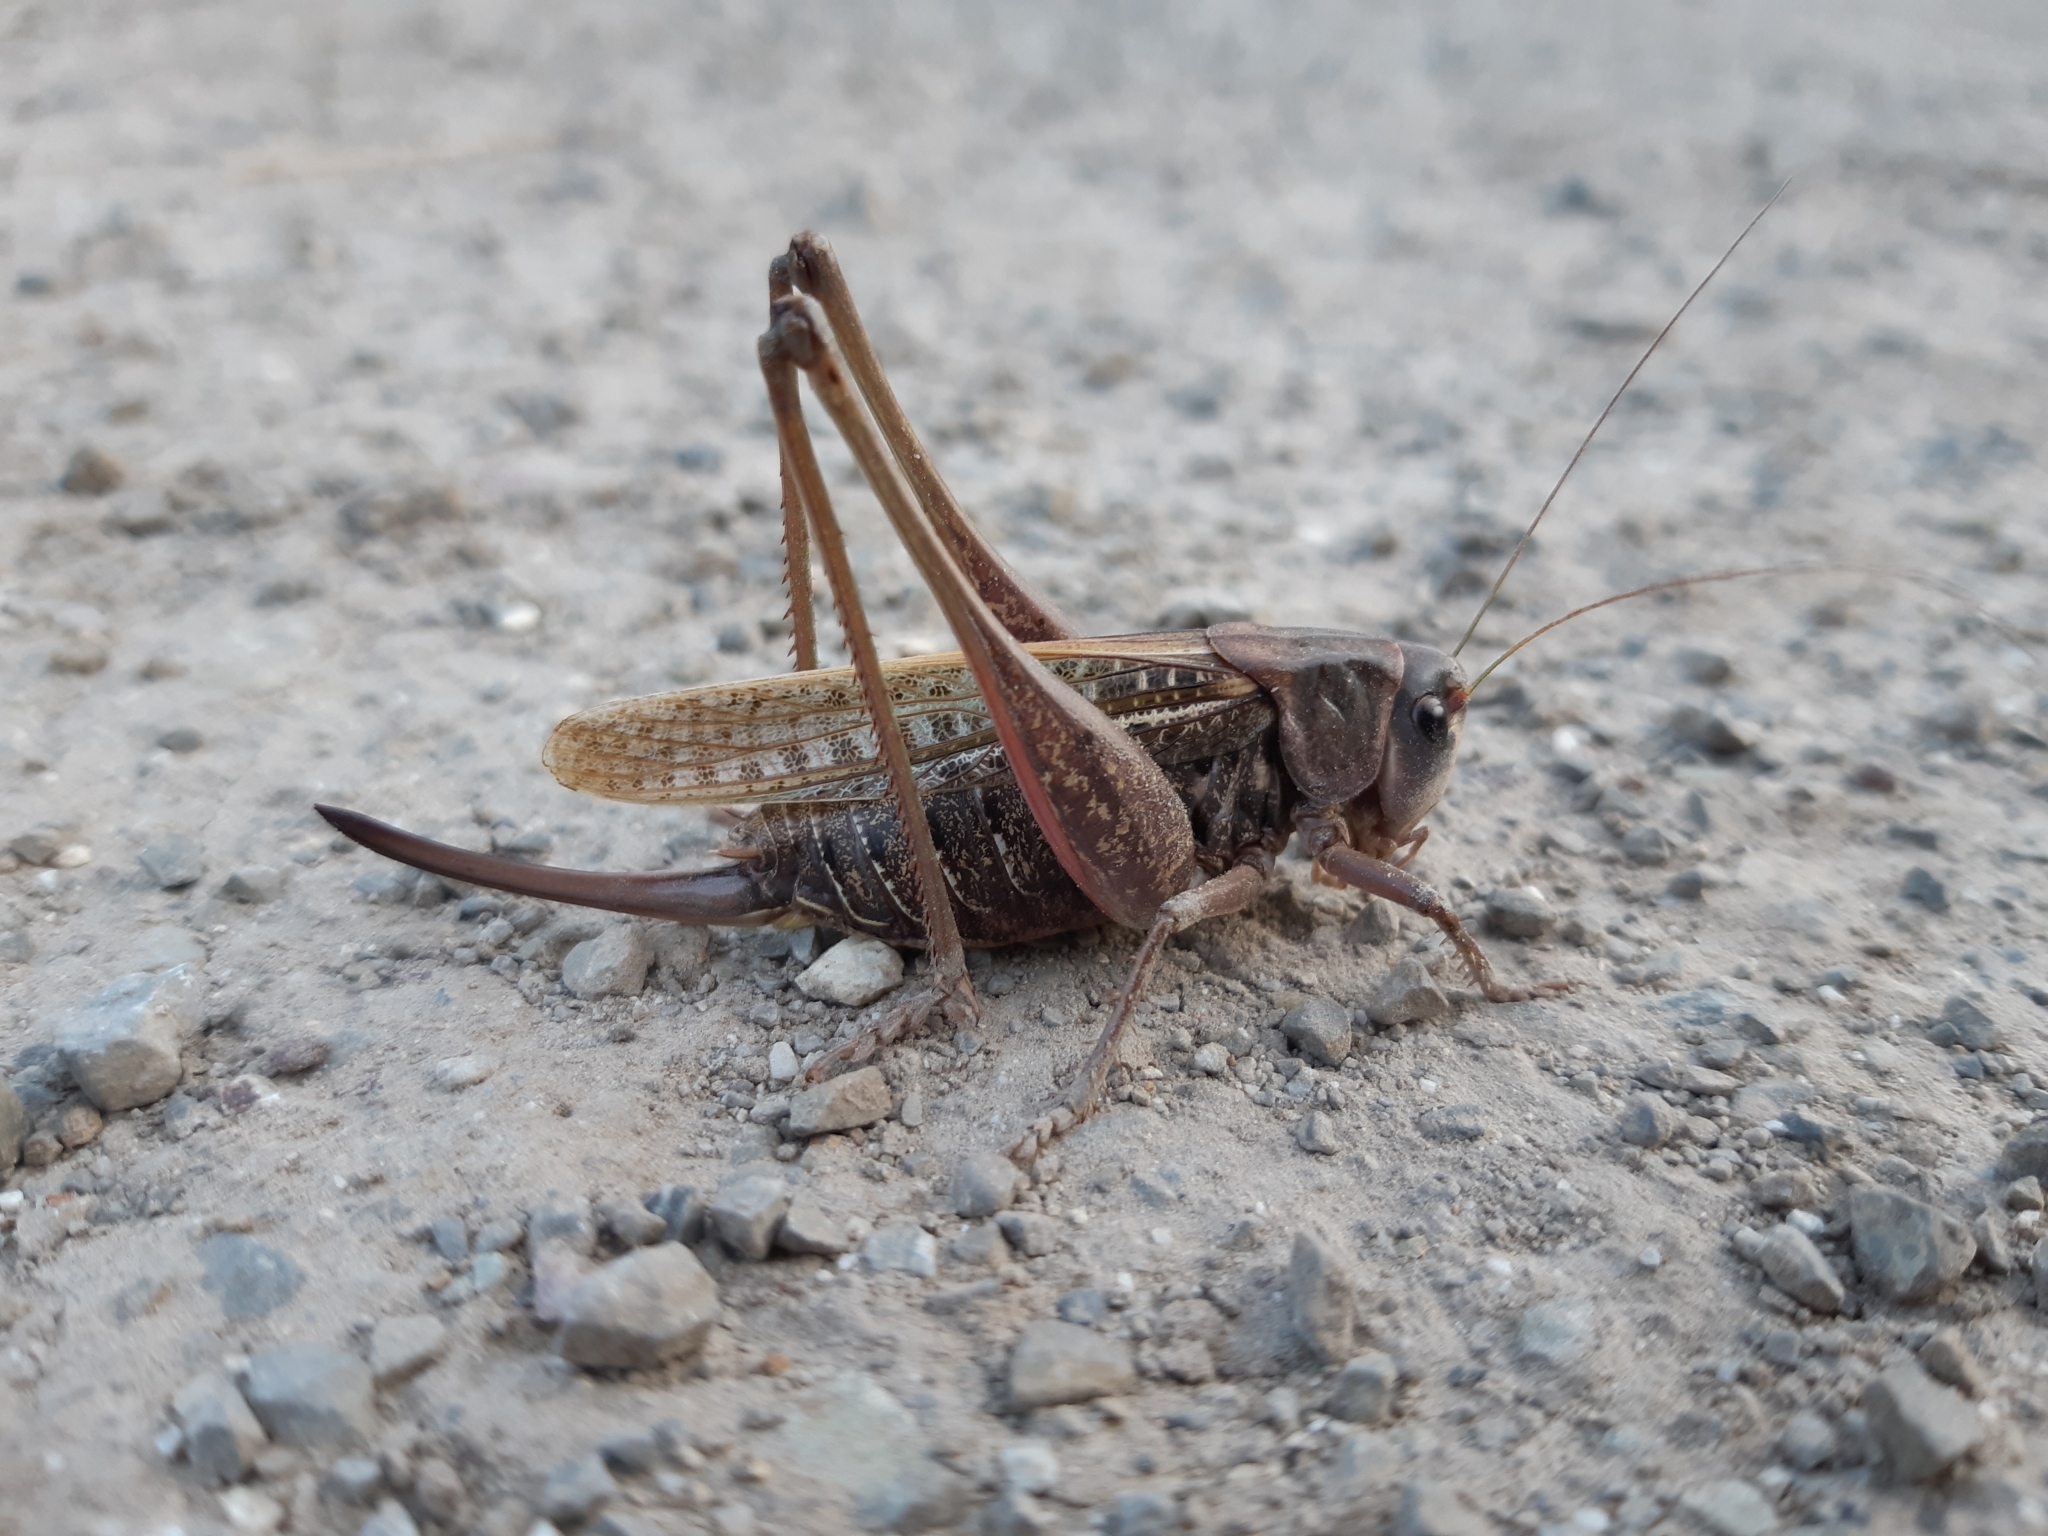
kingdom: Animalia
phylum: Arthropoda
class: Insecta
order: Orthoptera
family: Tettigoniidae
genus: Decticus
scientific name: Decticus verrucivorus
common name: Wart-biter
